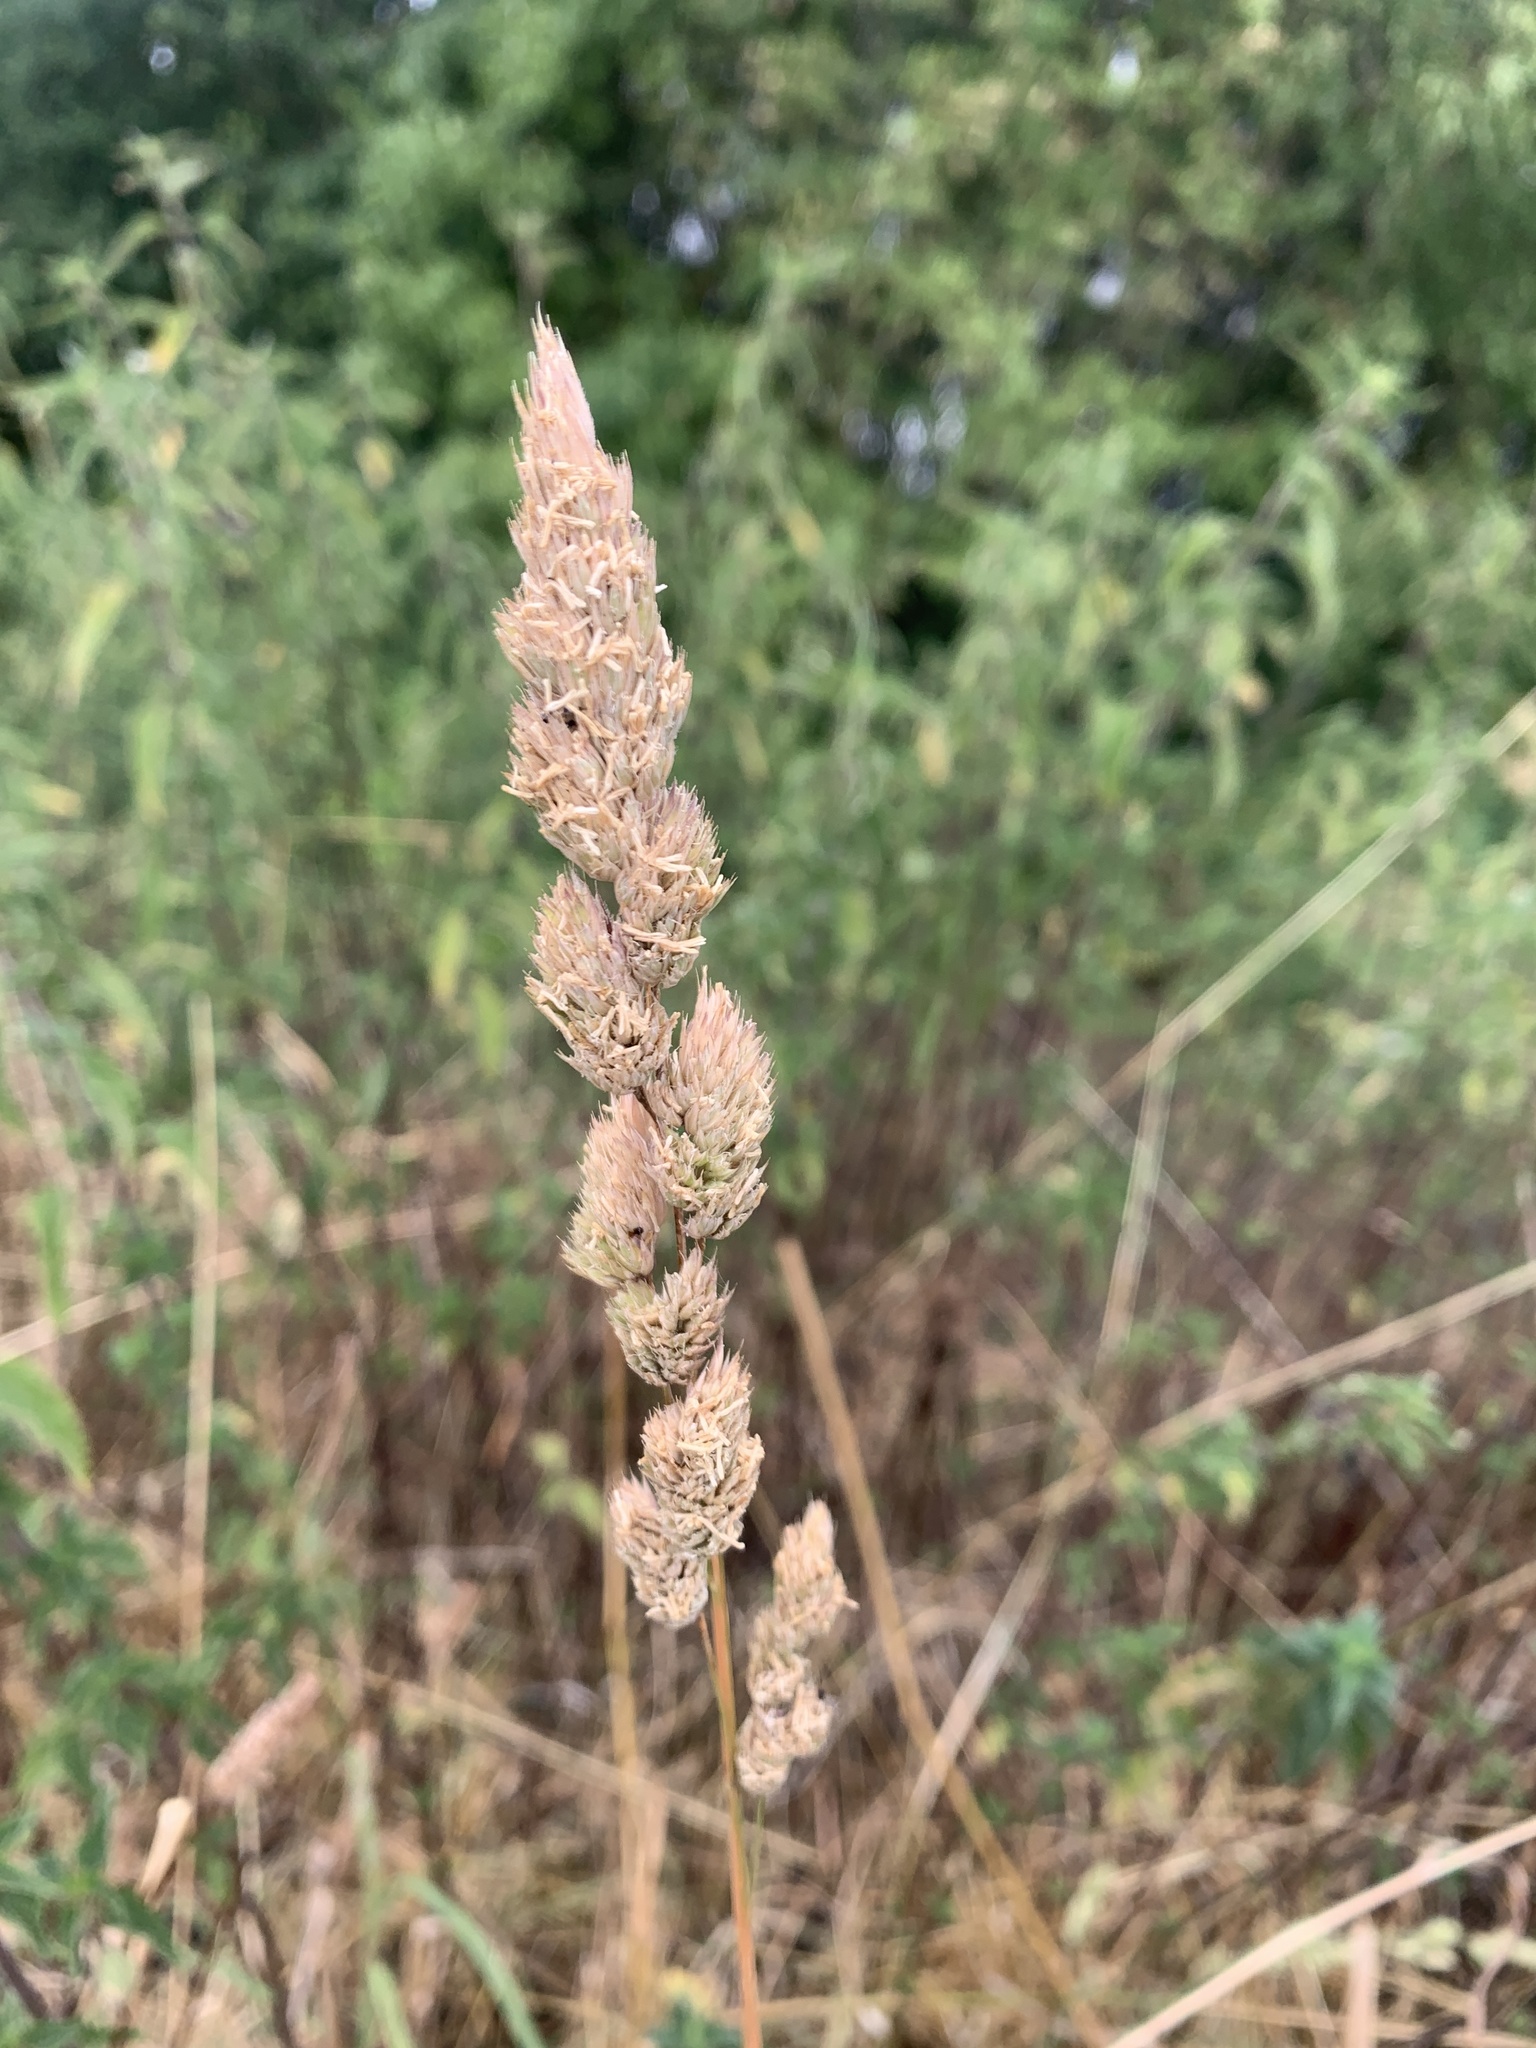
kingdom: Plantae
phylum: Tracheophyta
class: Liliopsida
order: Poales
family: Poaceae
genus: Dactylis
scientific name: Dactylis glomerata
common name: Orchardgrass
